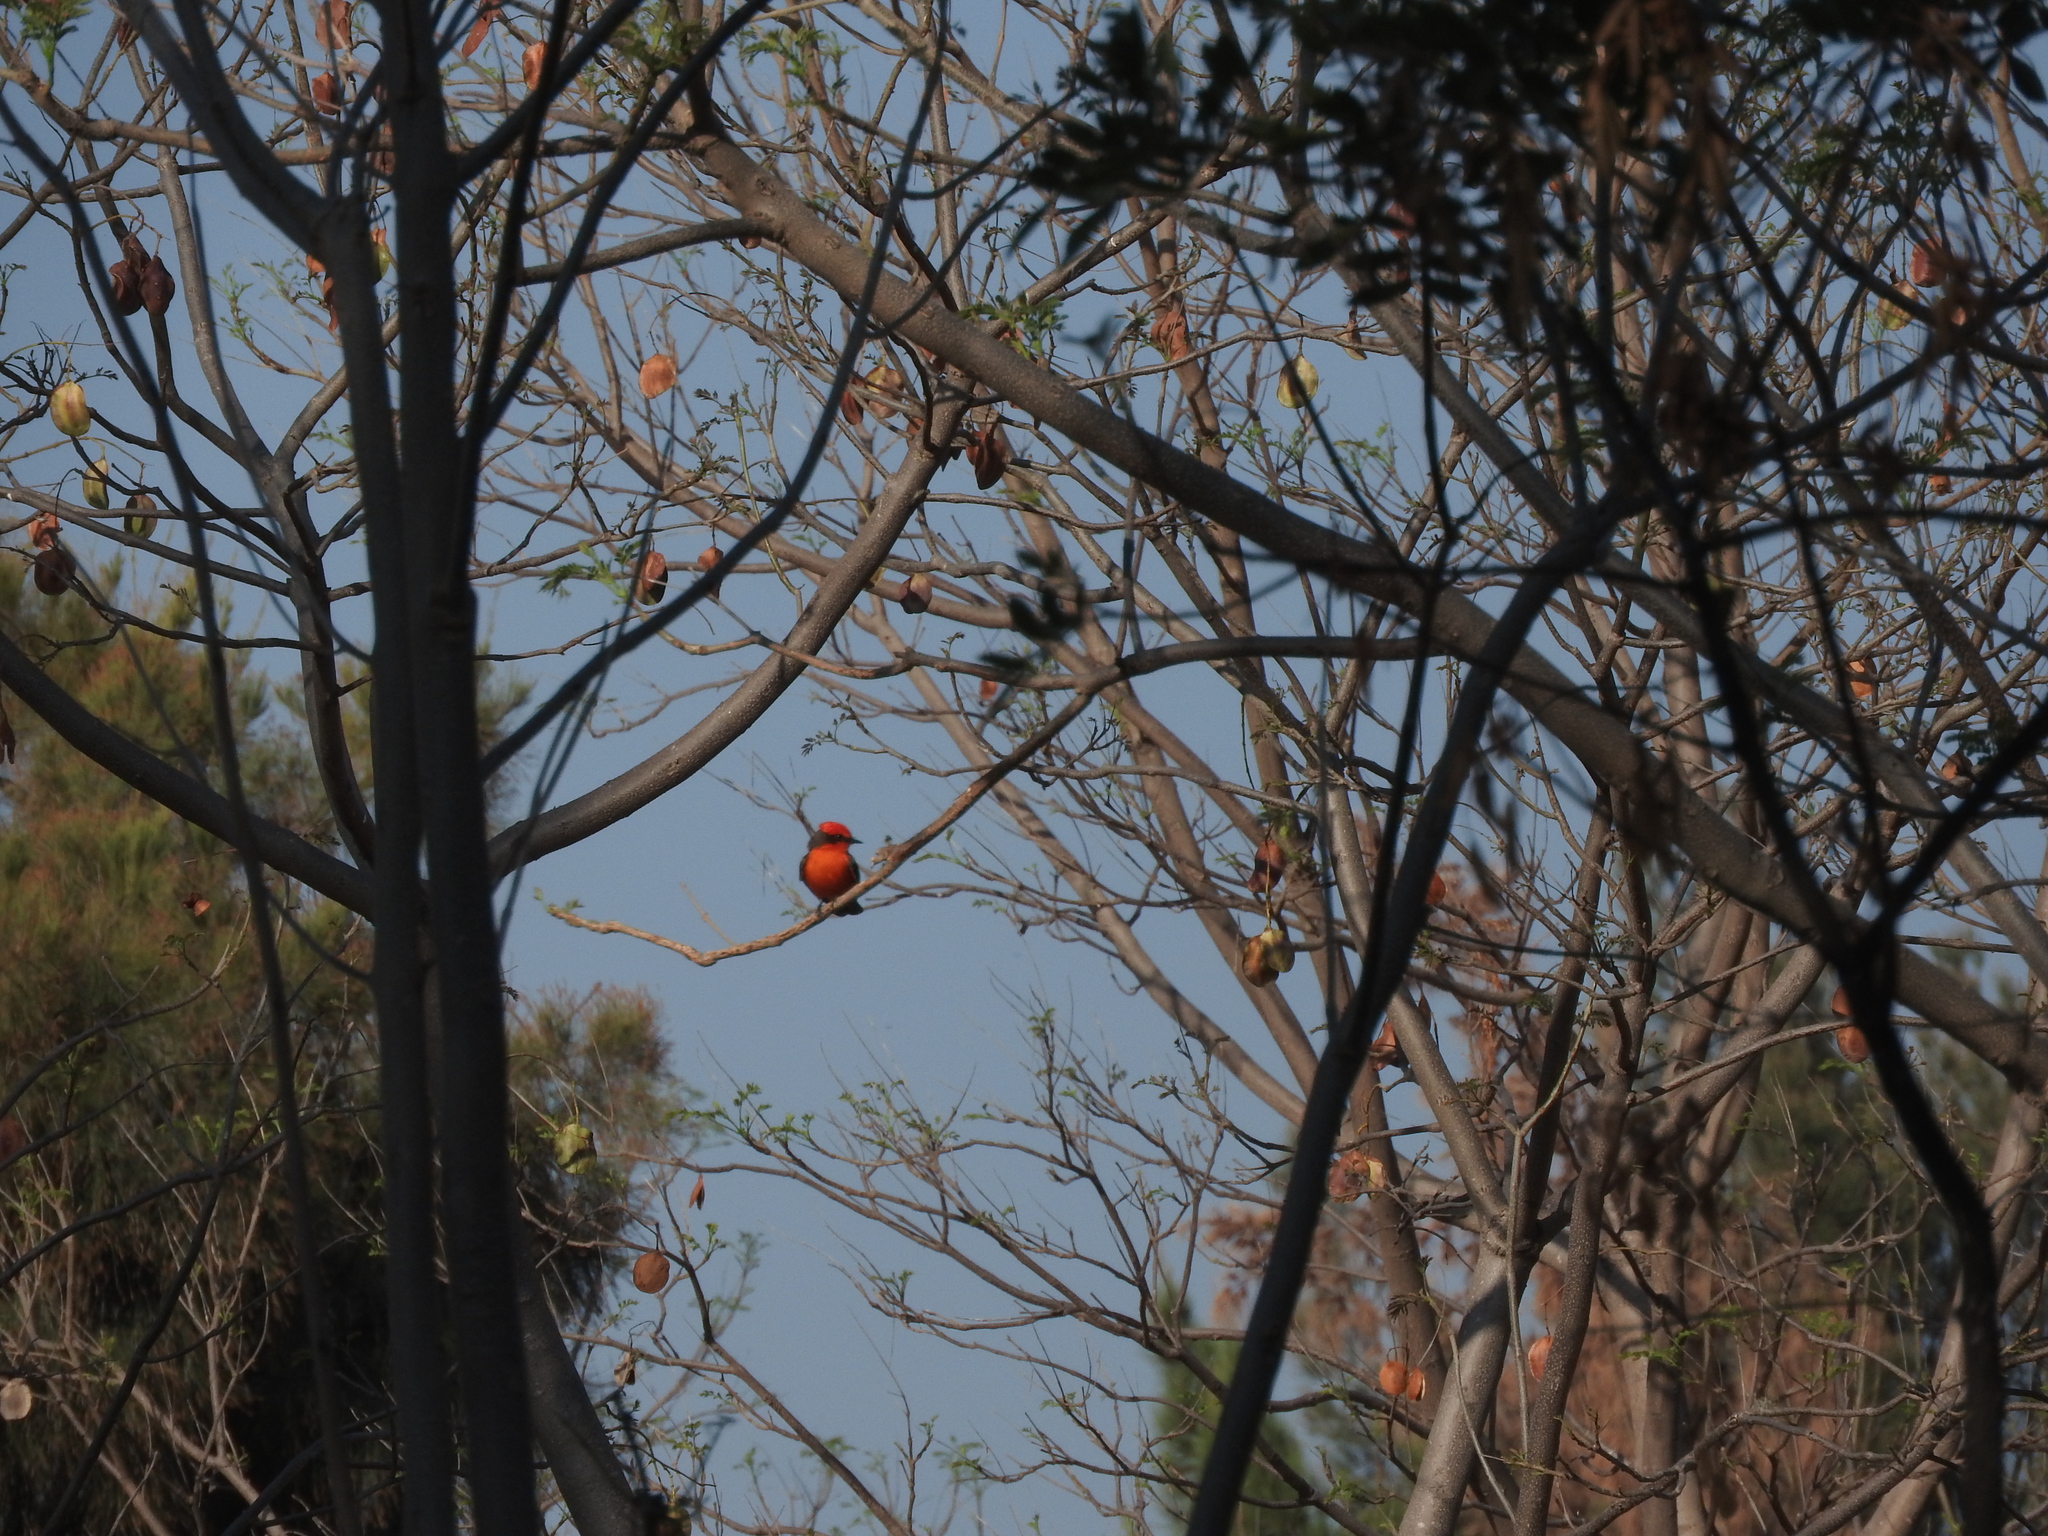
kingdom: Animalia
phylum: Chordata
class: Aves
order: Passeriformes
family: Tyrannidae
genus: Pyrocephalus
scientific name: Pyrocephalus rubinus
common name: Vermilion flycatcher
